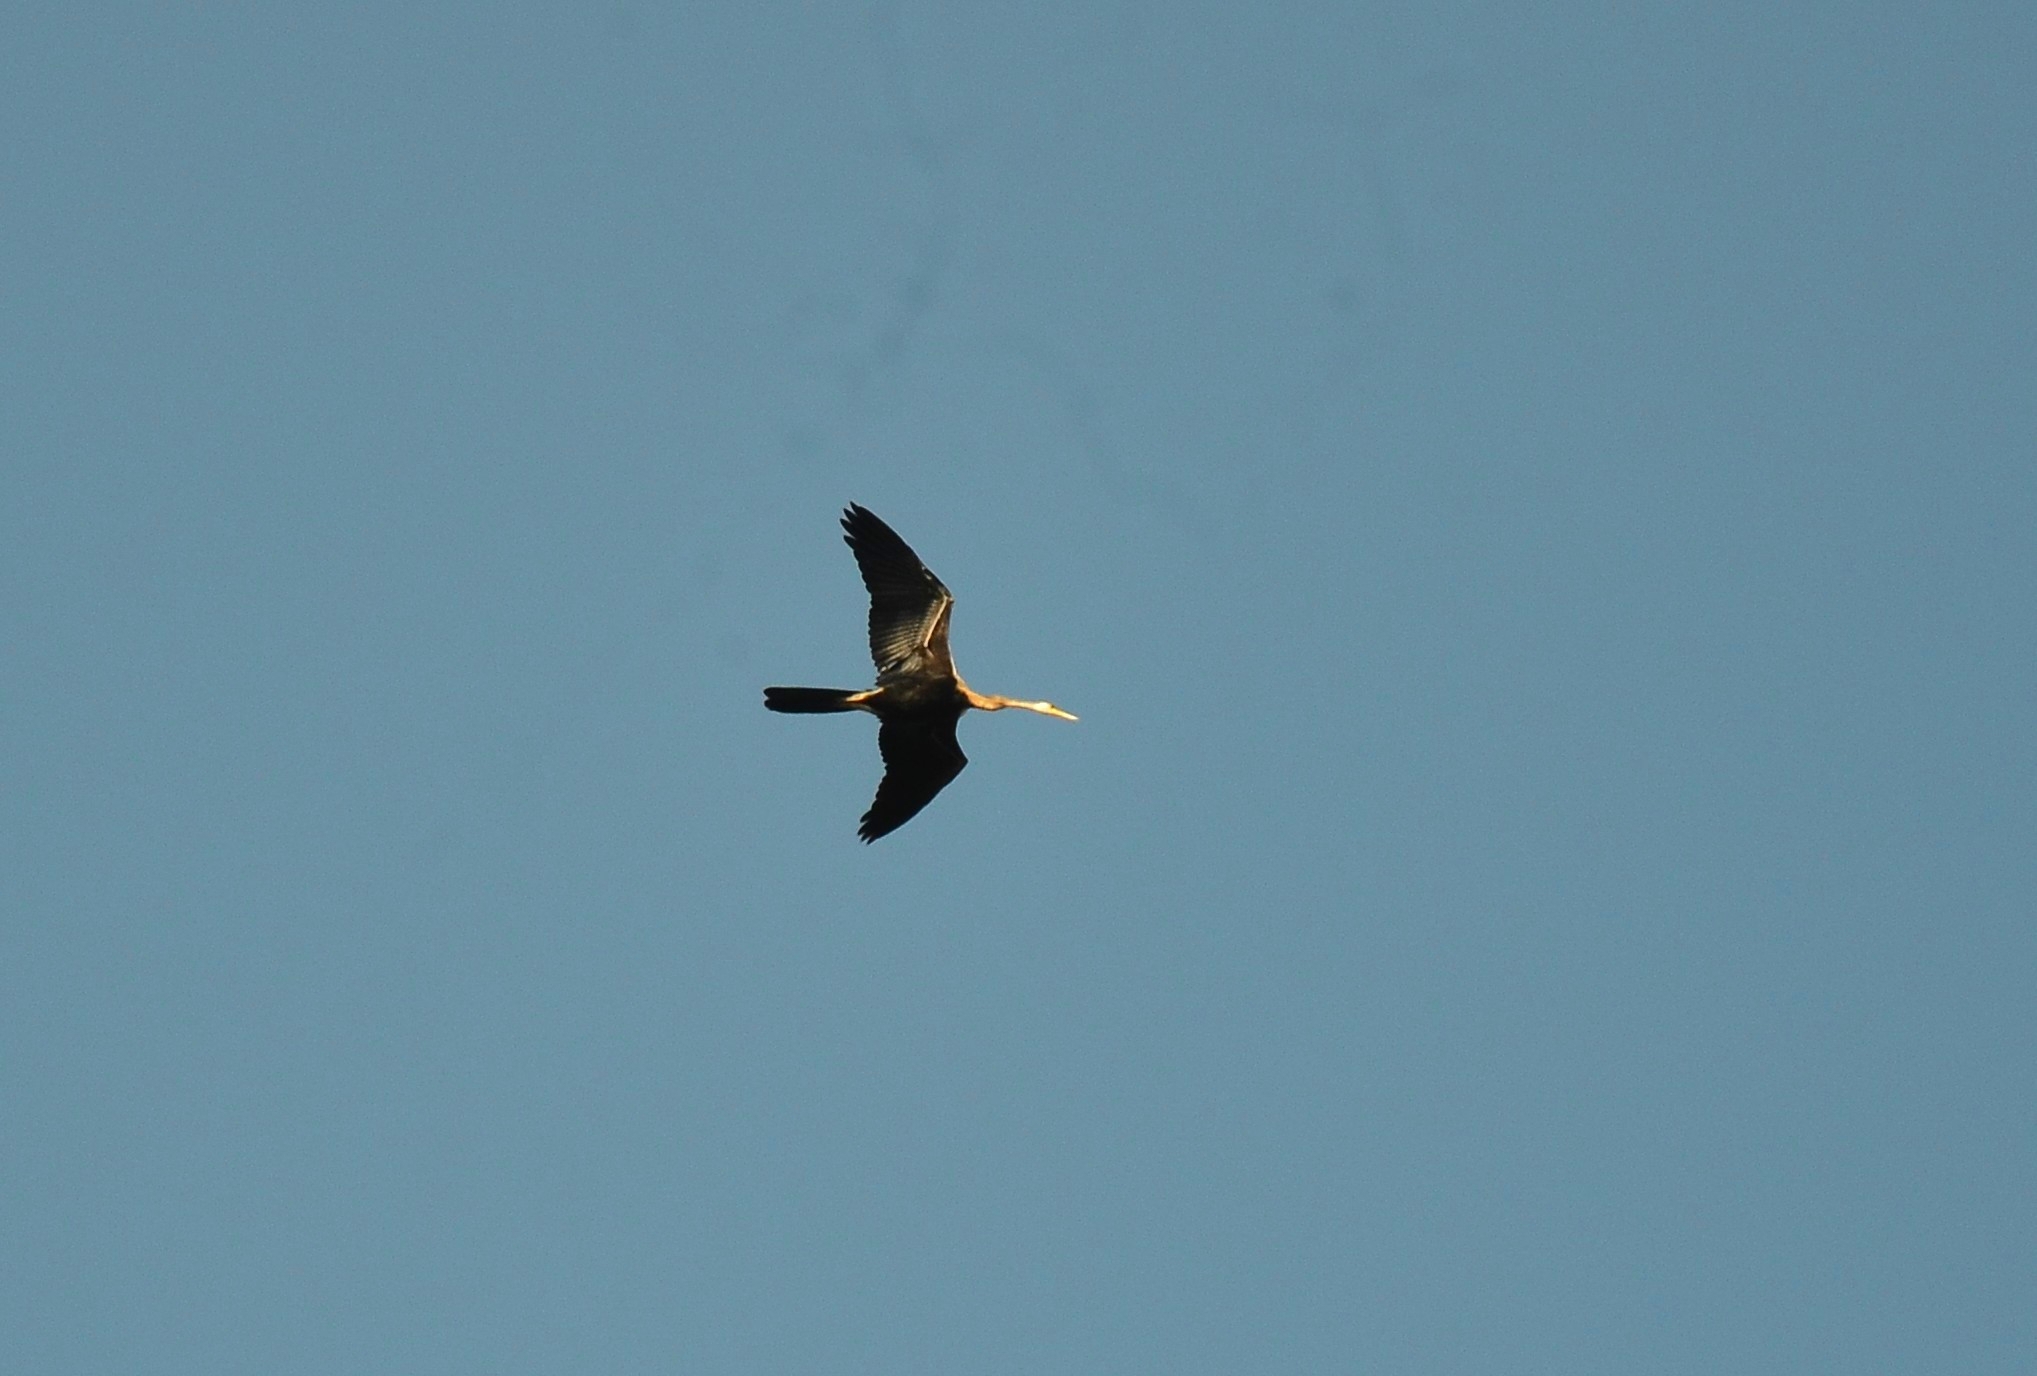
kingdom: Animalia
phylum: Chordata
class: Aves
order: Suliformes
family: Anhingidae
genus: Anhinga
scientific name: Anhinga melanogaster
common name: Oriental darter
